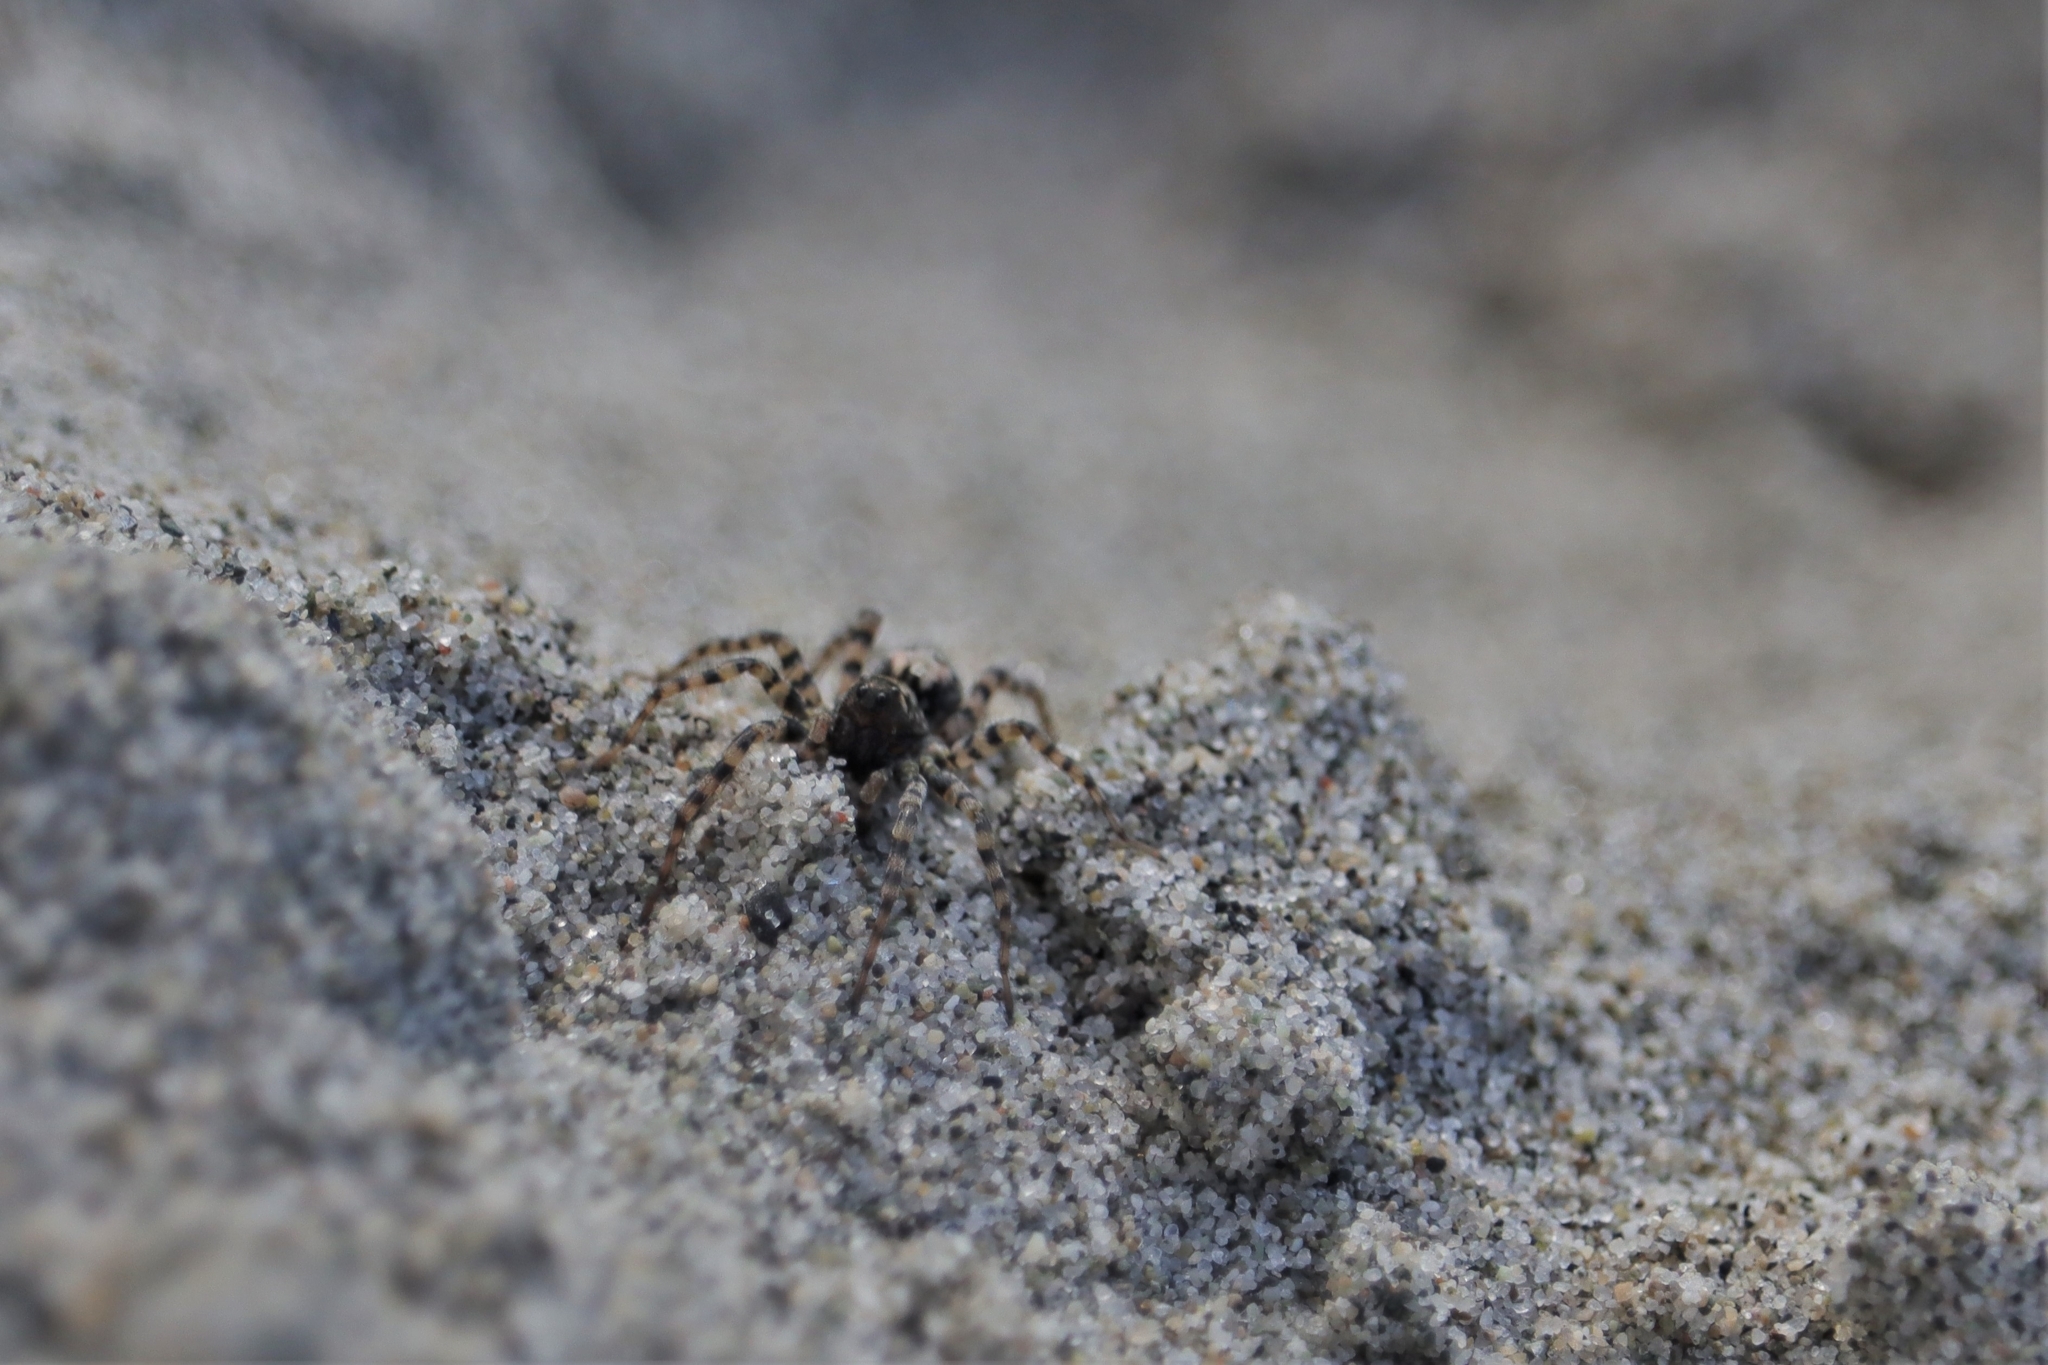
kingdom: Animalia
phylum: Arthropoda
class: Arachnida
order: Araneae
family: Lycosidae
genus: Arctosa
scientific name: Arctosa perita
